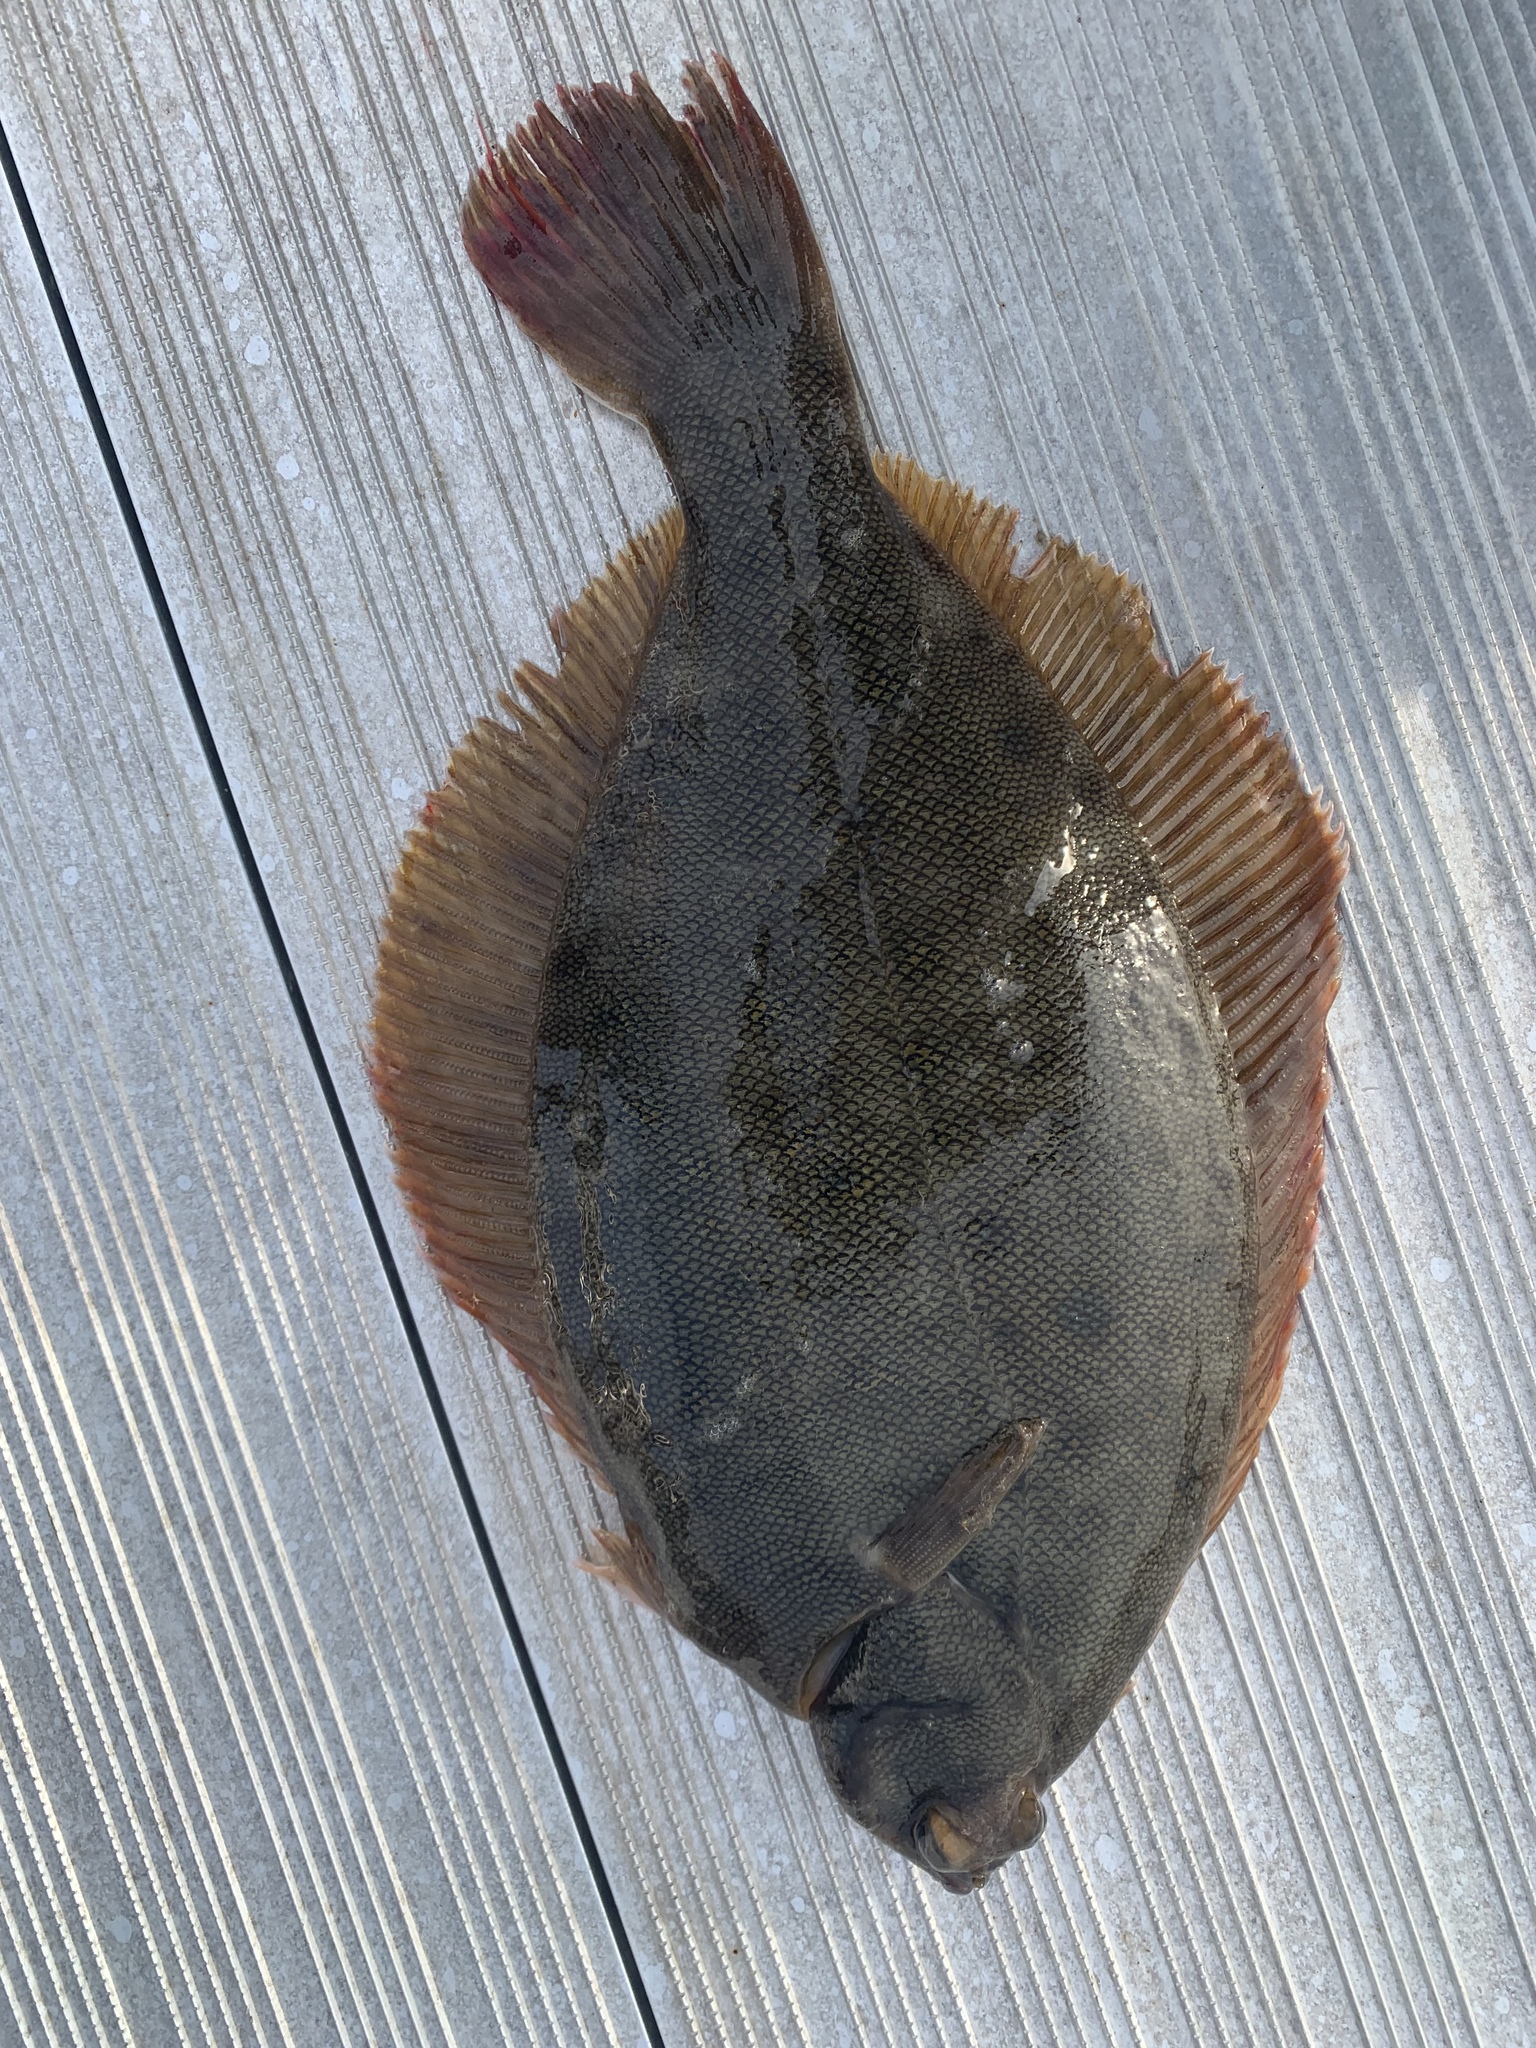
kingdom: Animalia
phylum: Chordata
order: Pleuronectiformes
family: Pleuronectidae
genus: Pseudopleuronectes
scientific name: Pseudopleuronectes americanus
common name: Black backs
